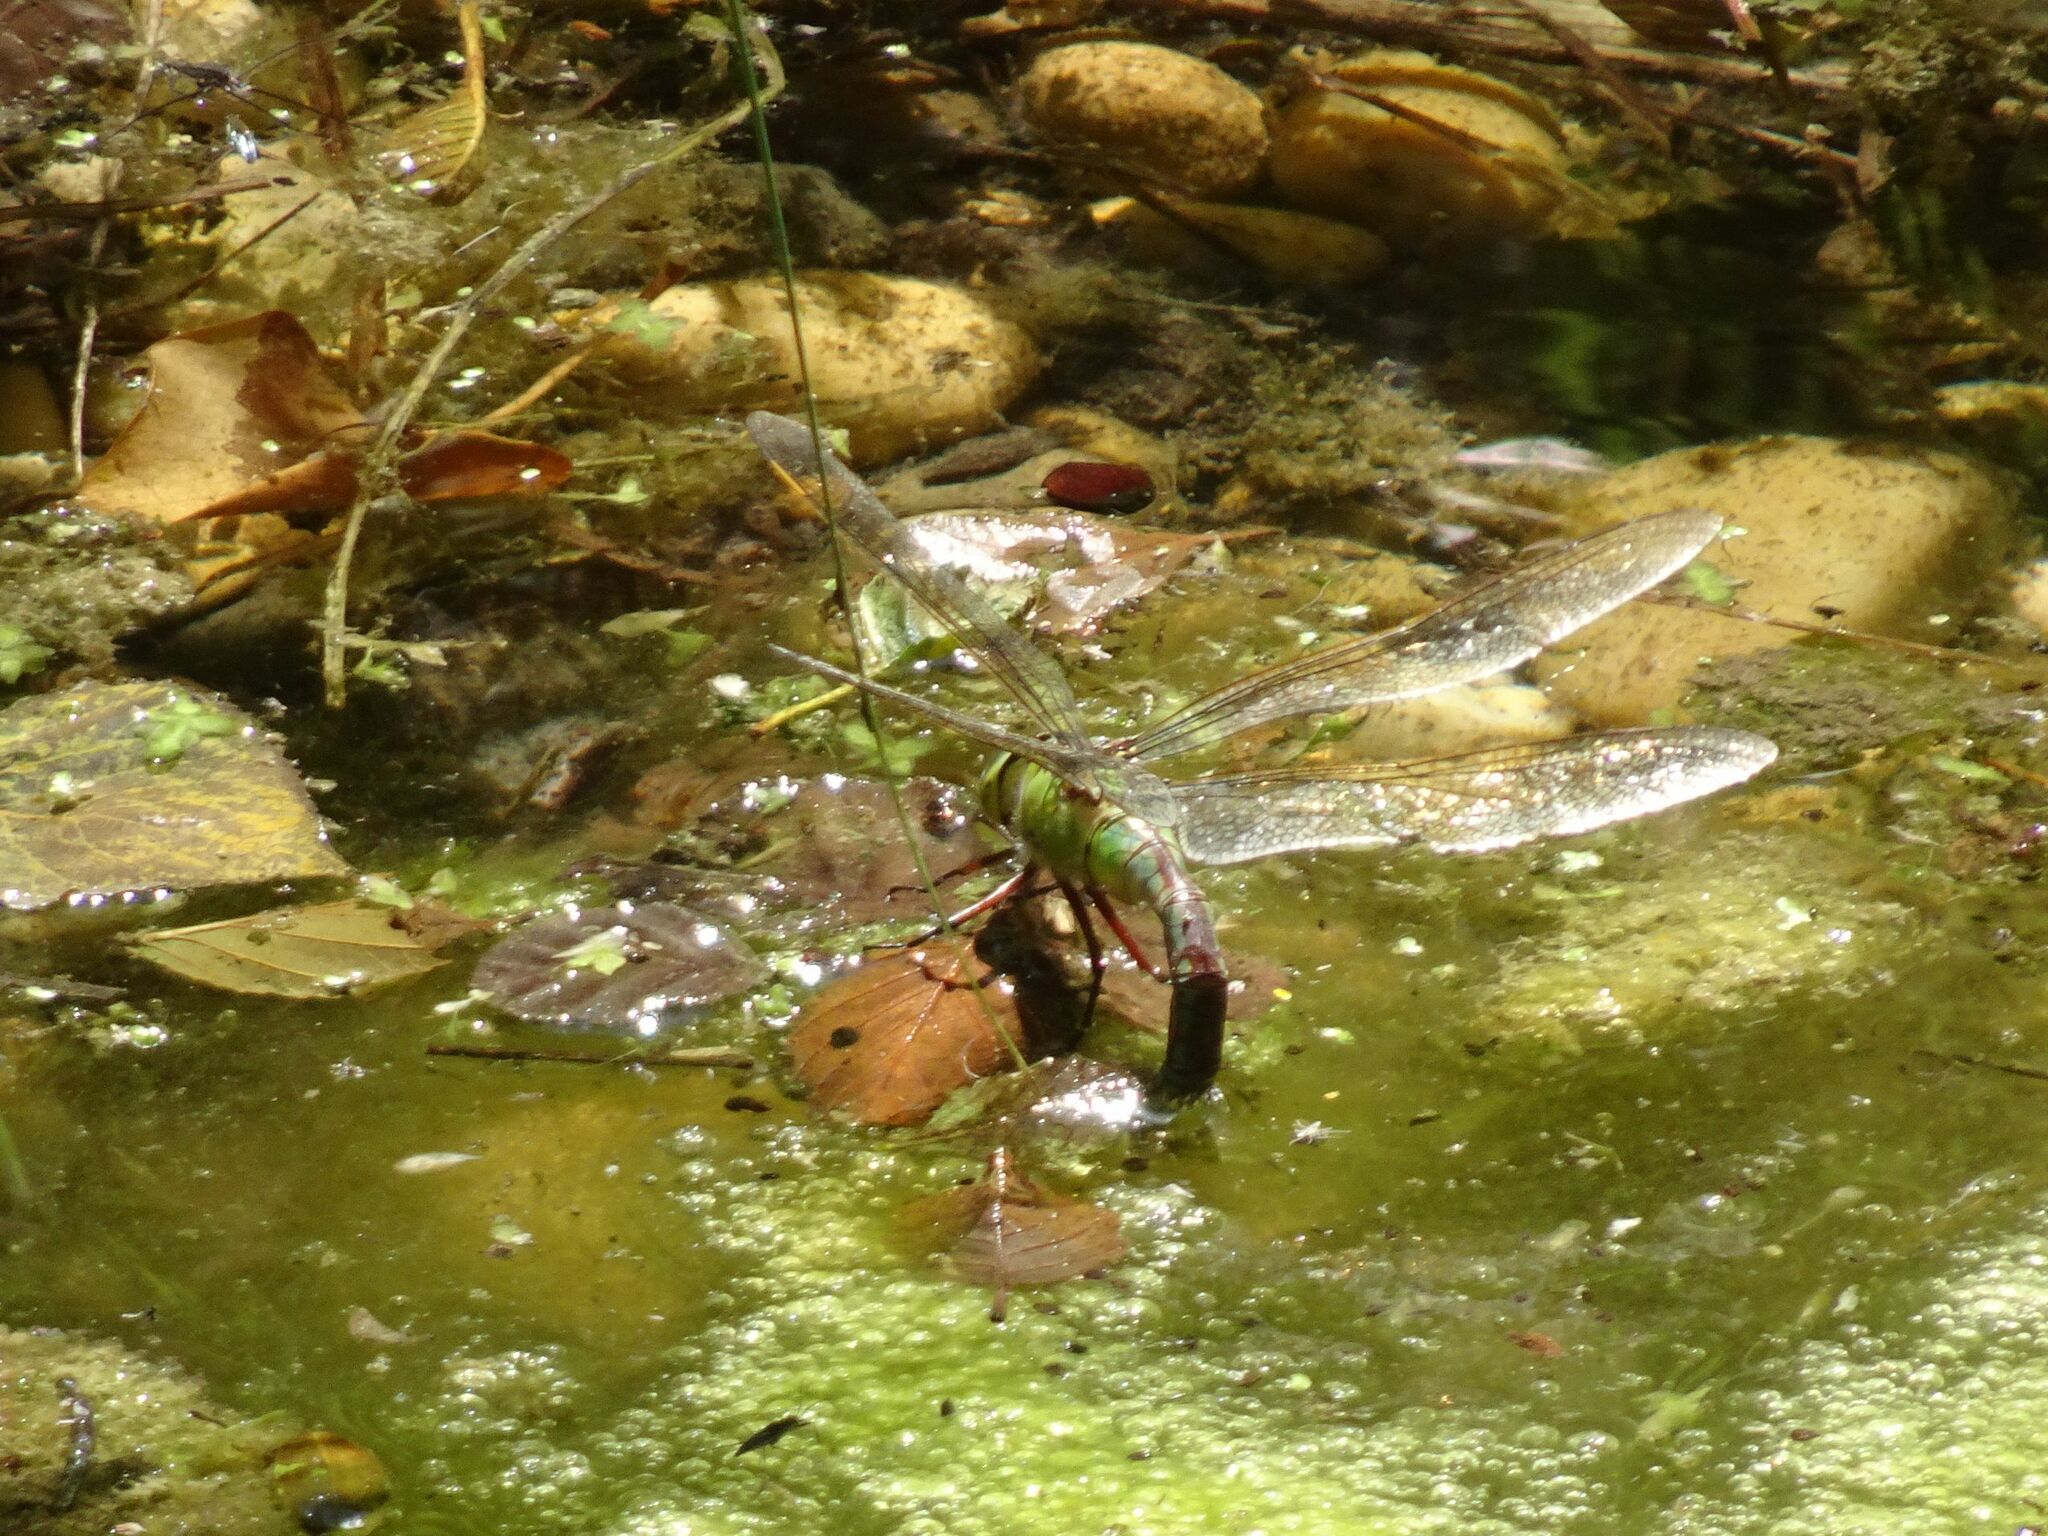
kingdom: Animalia
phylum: Arthropoda
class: Insecta
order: Odonata
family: Aeshnidae
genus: Anax
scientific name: Anax imperator
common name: Emperor dragonfly
